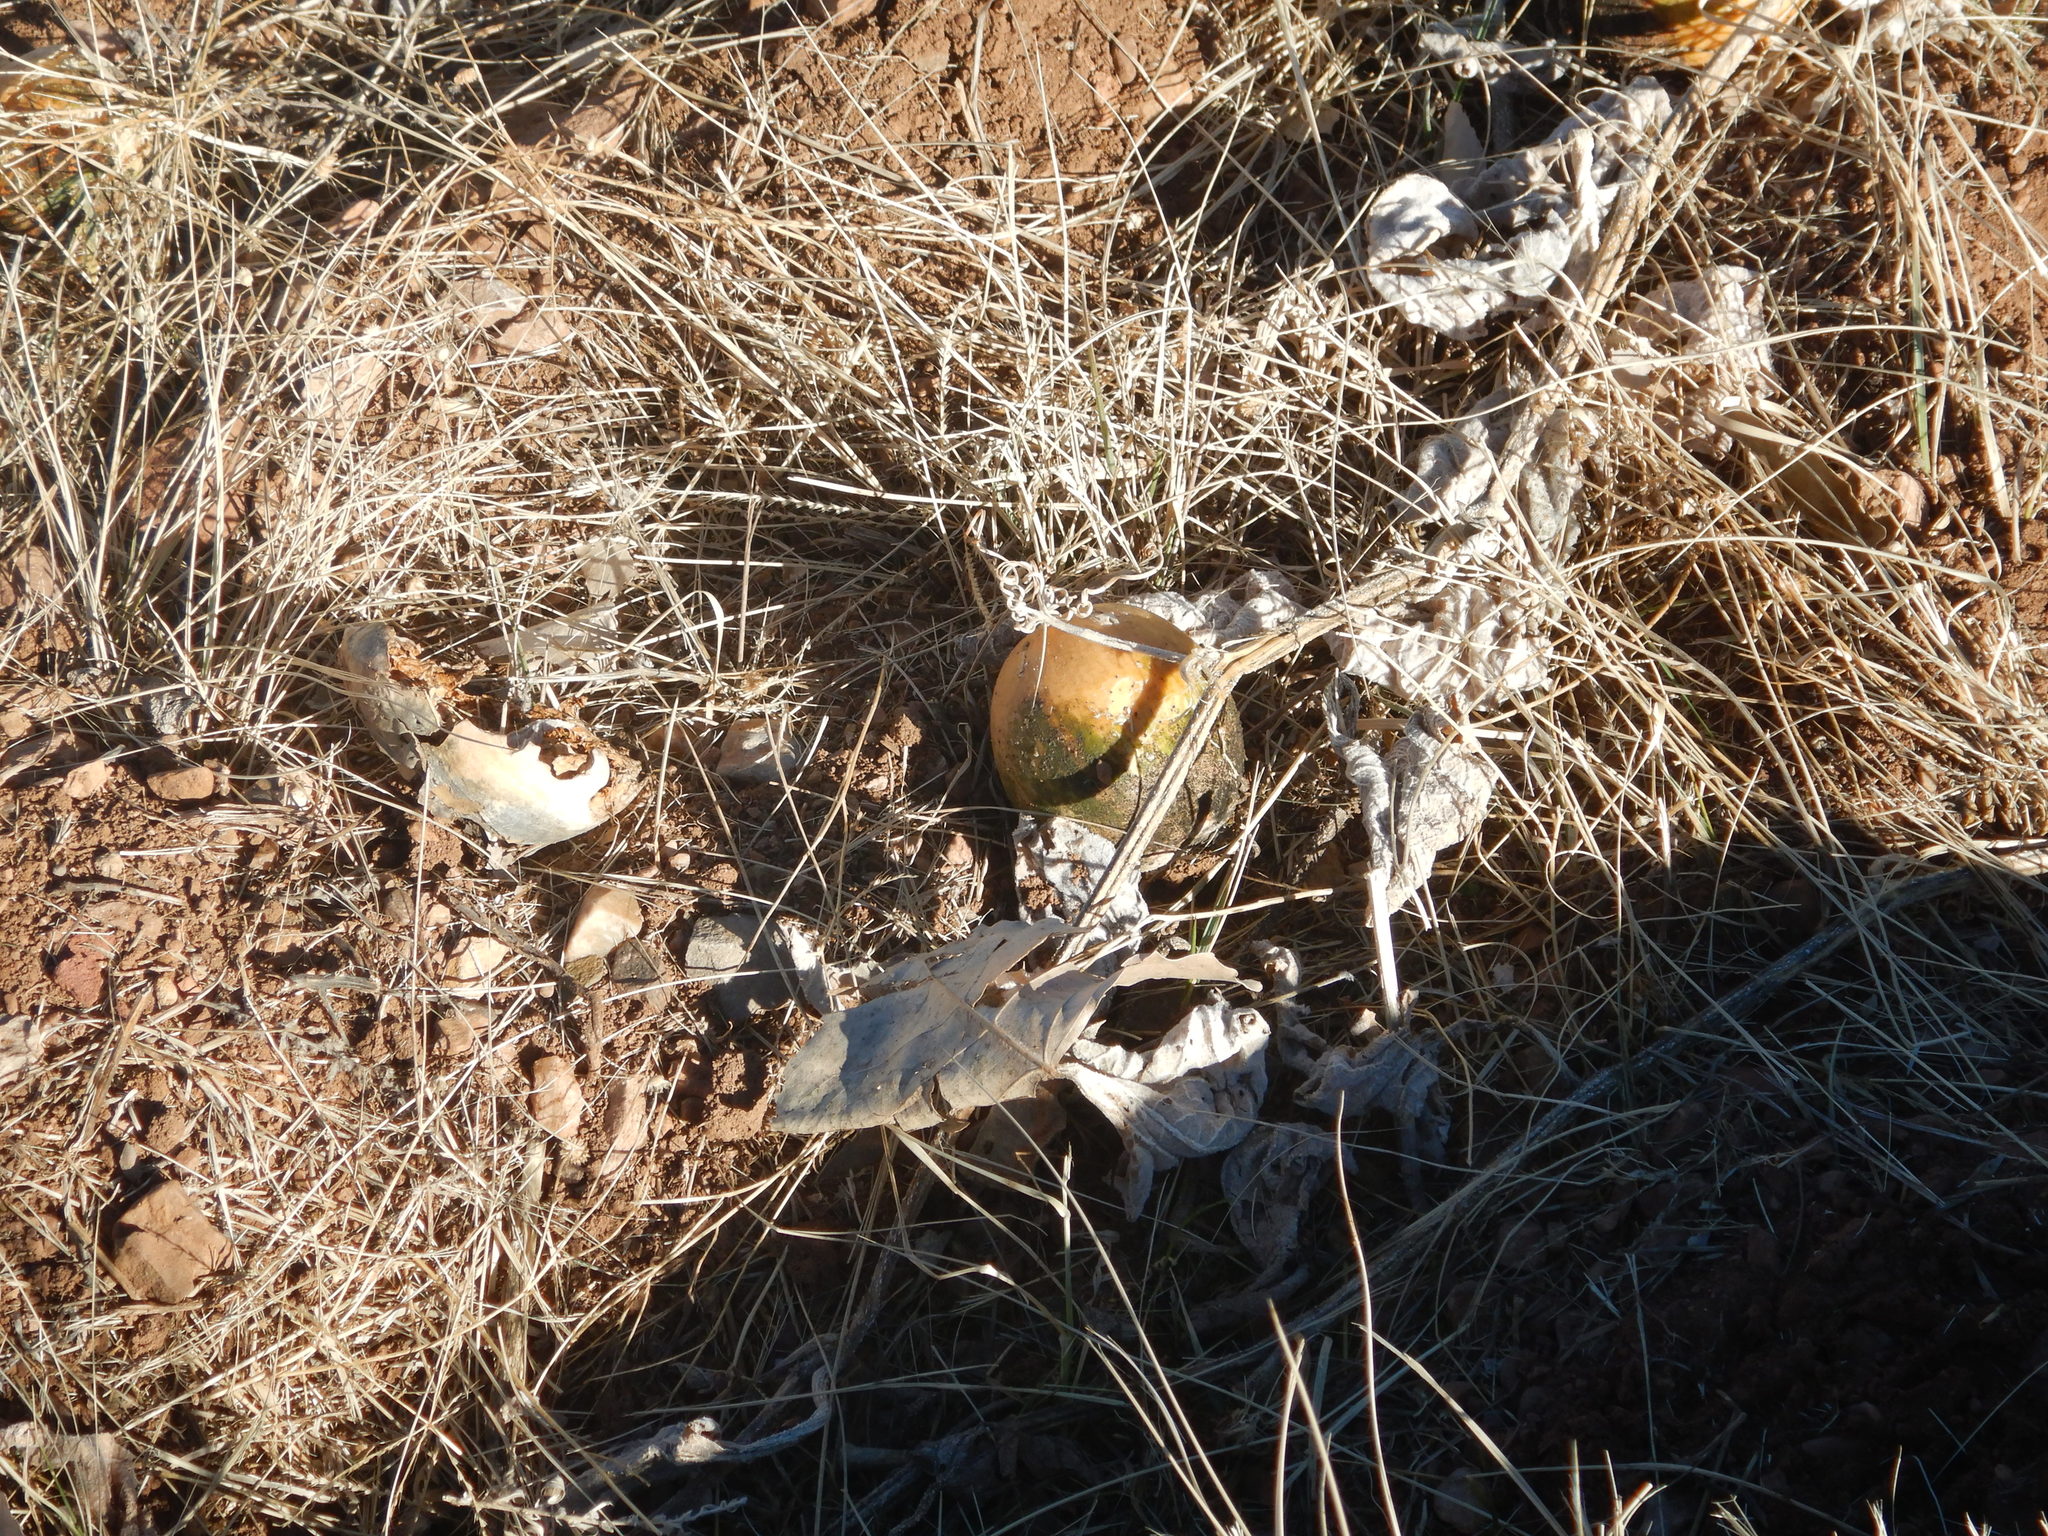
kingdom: Plantae
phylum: Tracheophyta
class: Magnoliopsida
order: Cucurbitales
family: Cucurbitaceae
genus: Cucurbita
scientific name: Cucurbita foetidissima
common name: Buffalo gourd
